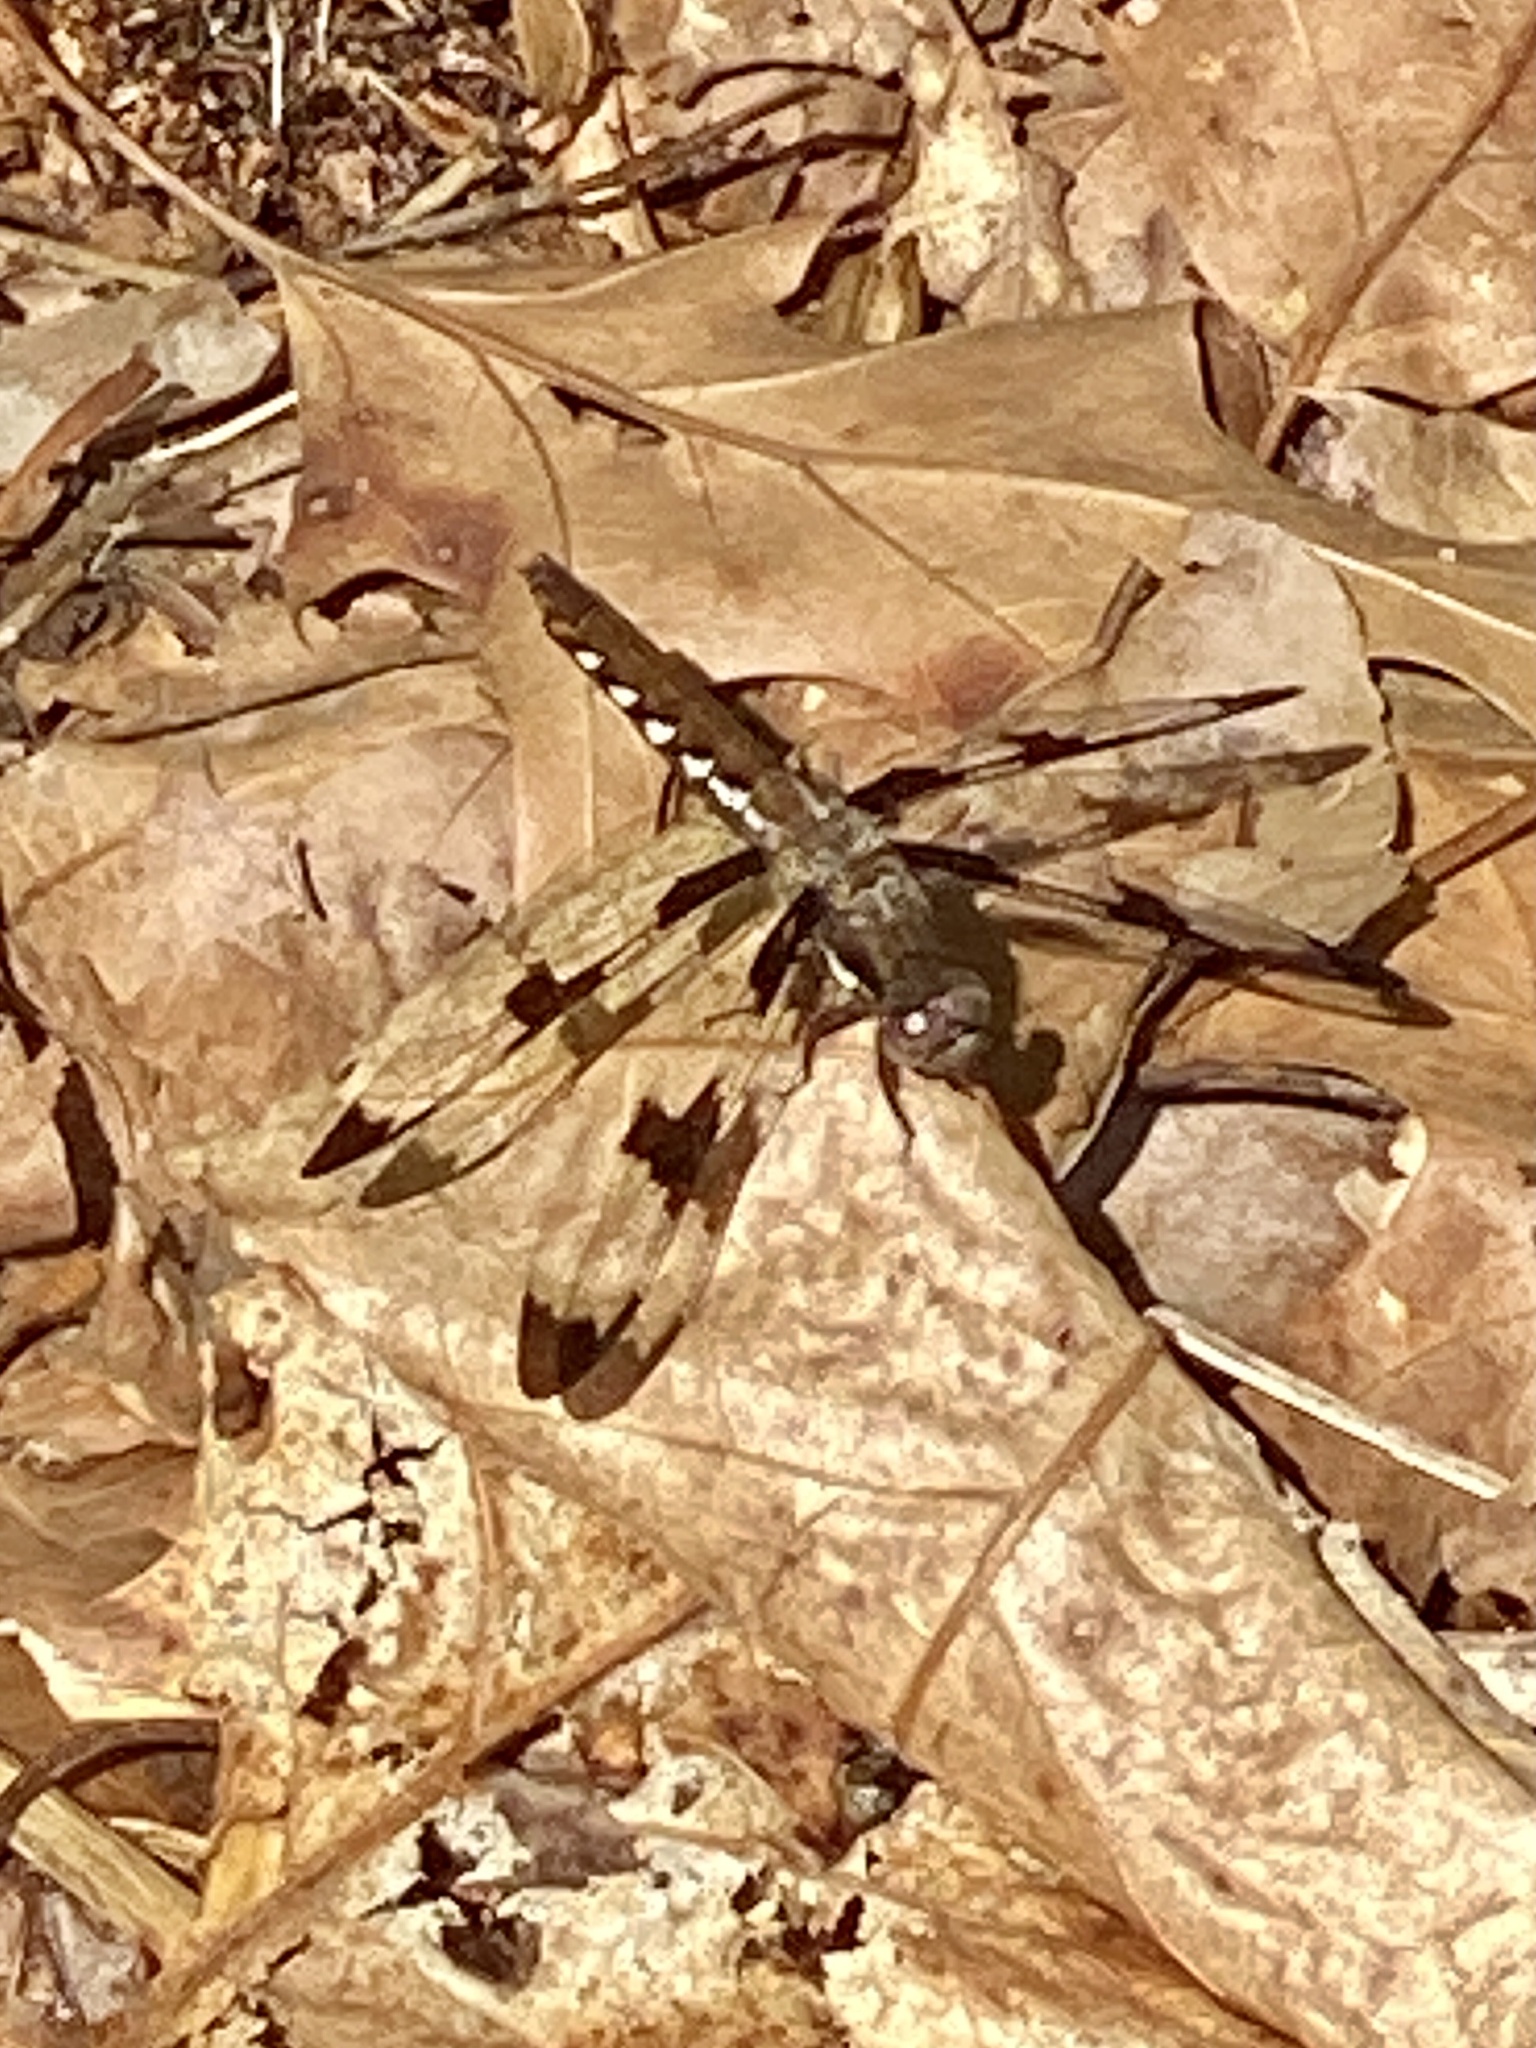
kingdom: Animalia
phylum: Arthropoda
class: Insecta
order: Odonata
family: Libellulidae
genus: Plathemis
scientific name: Plathemis lydia
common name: Common whitetail
